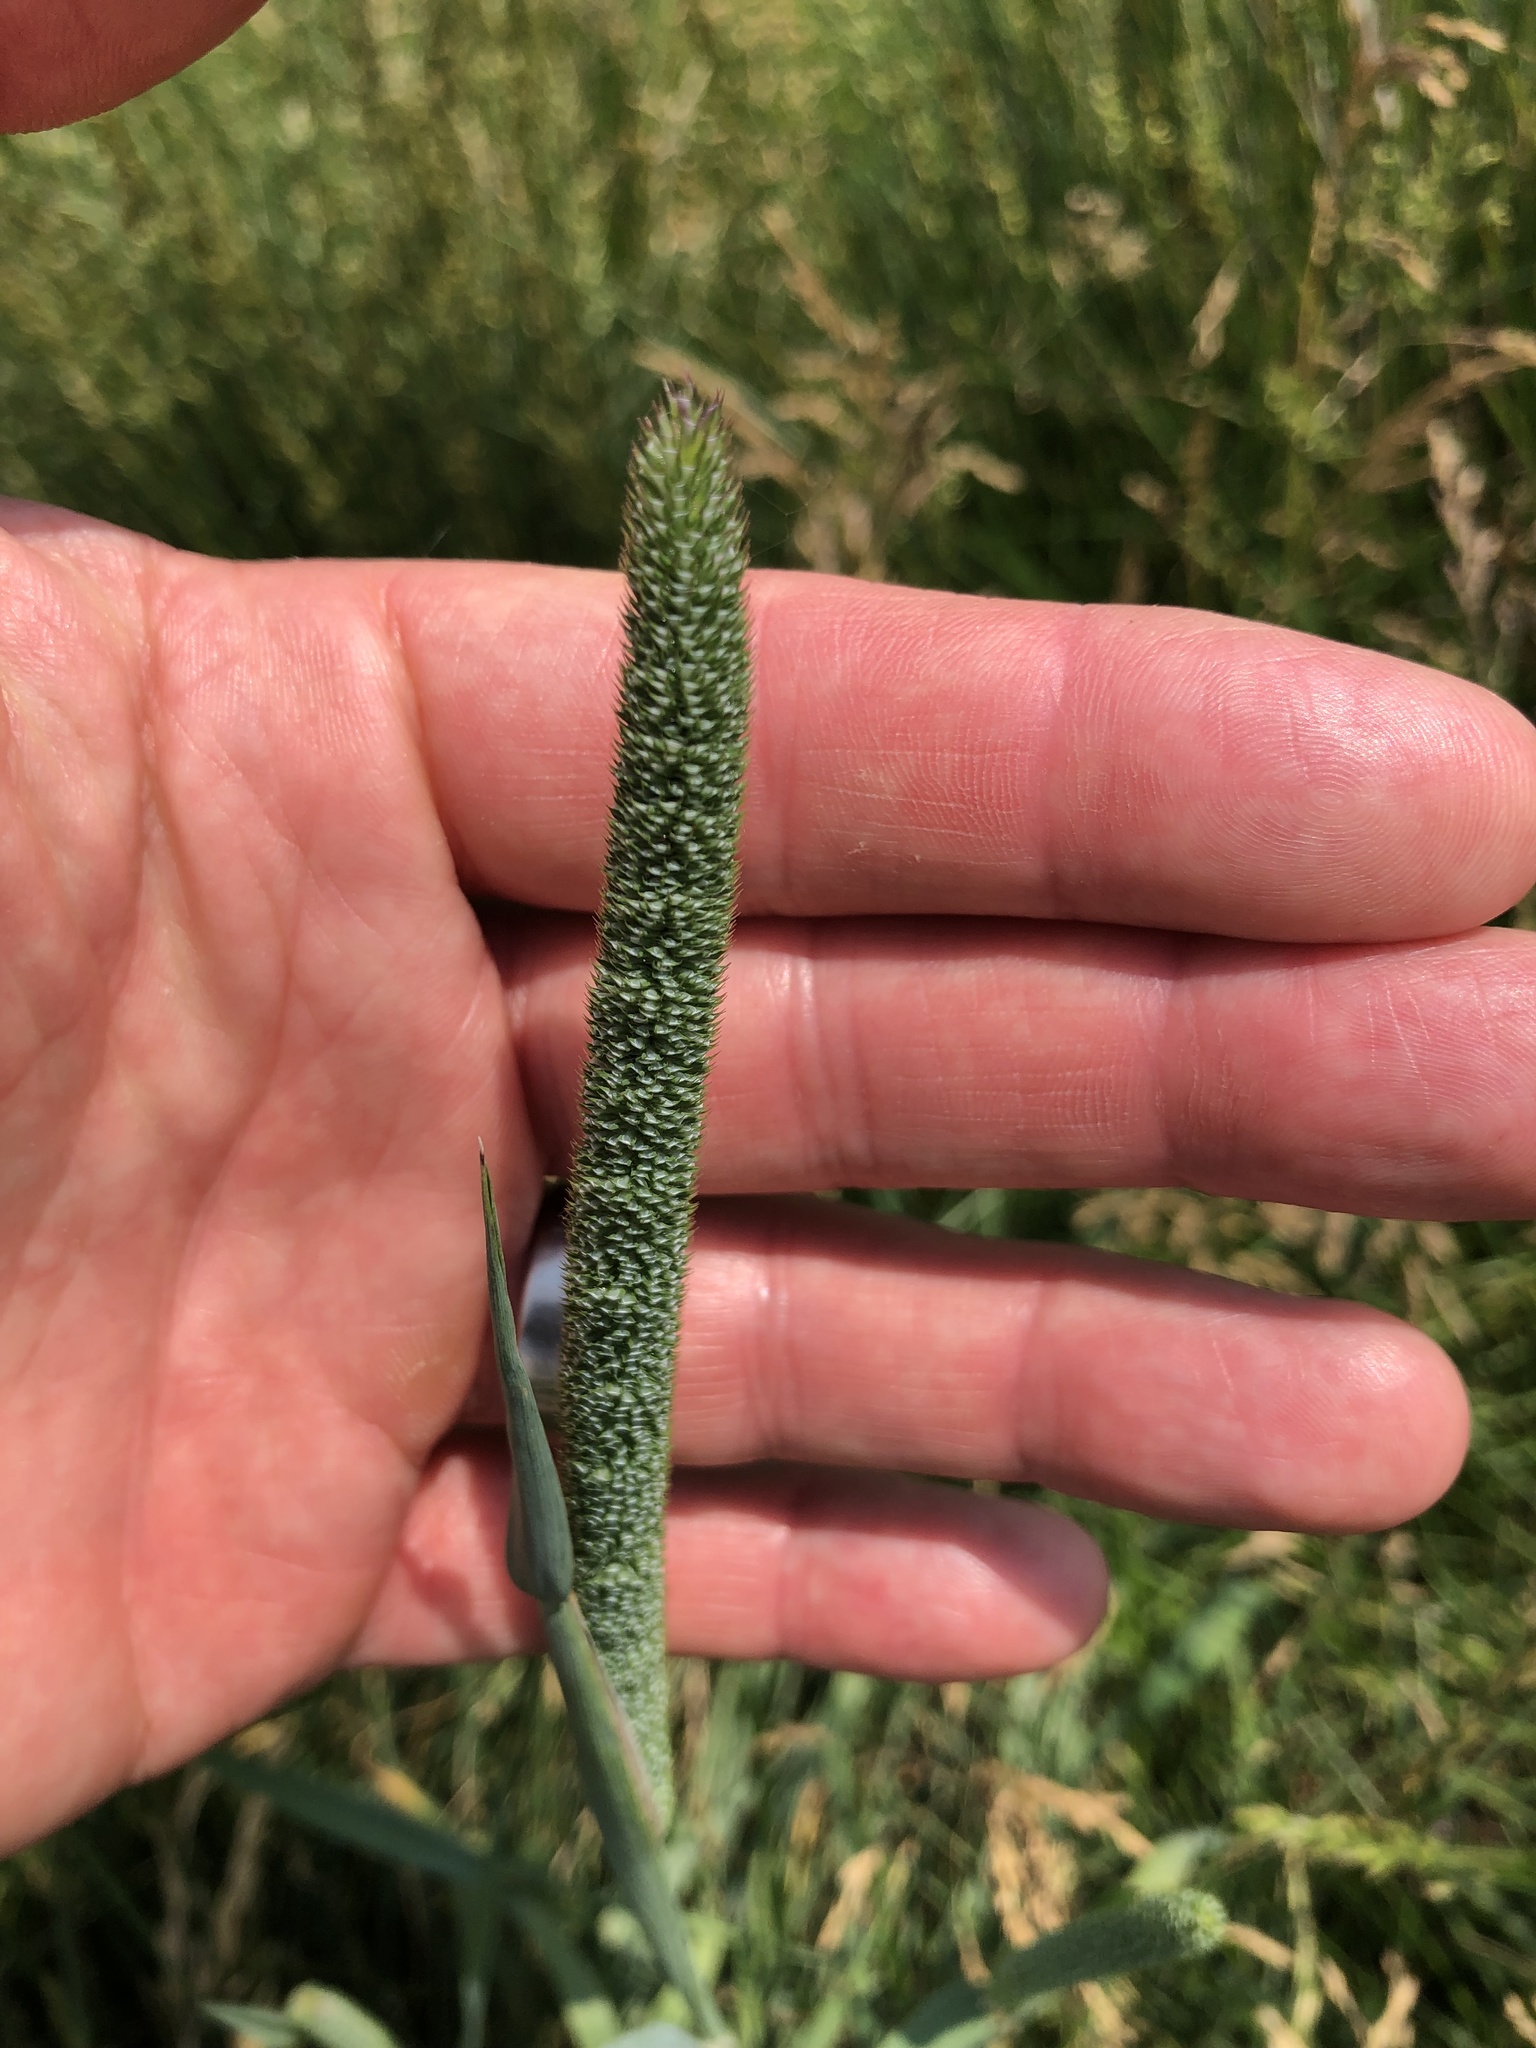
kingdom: Plantae
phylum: Tracheophyta
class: Liliopsida
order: Poales
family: Poaceae
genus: Phleum
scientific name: Phleum pratense
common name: Timothy grass
